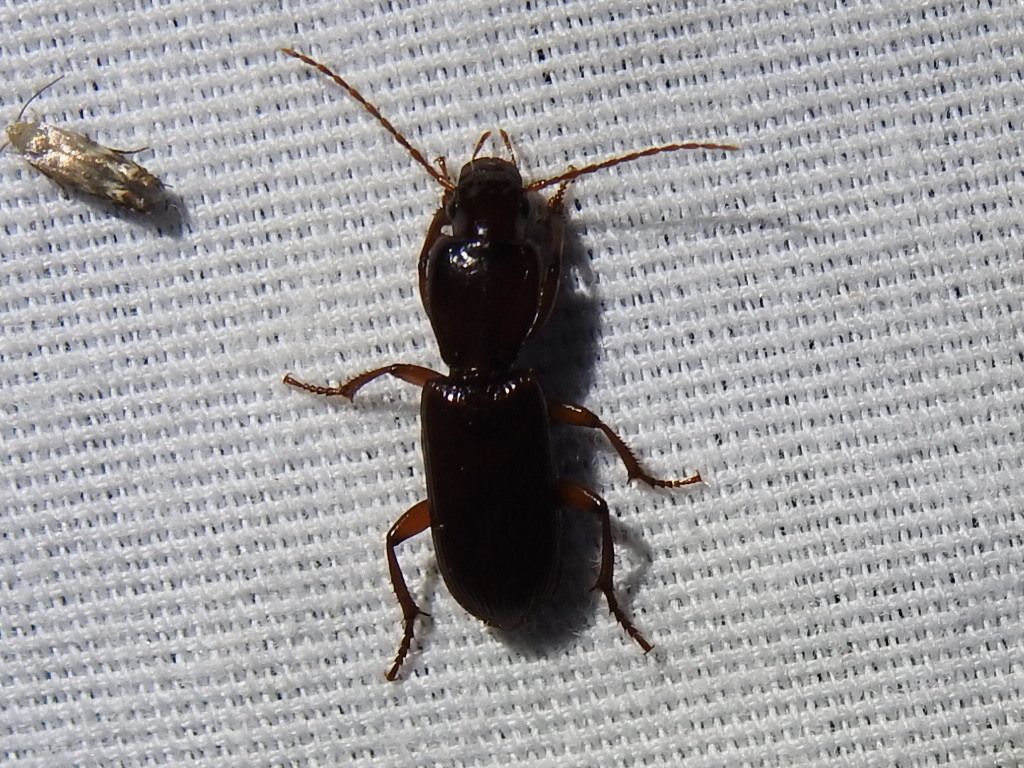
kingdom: Animalia
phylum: Arthropoda
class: Insecta
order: Coleoptera
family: Carabidae
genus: Stenomorphus
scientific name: Stenomorphus californicus
